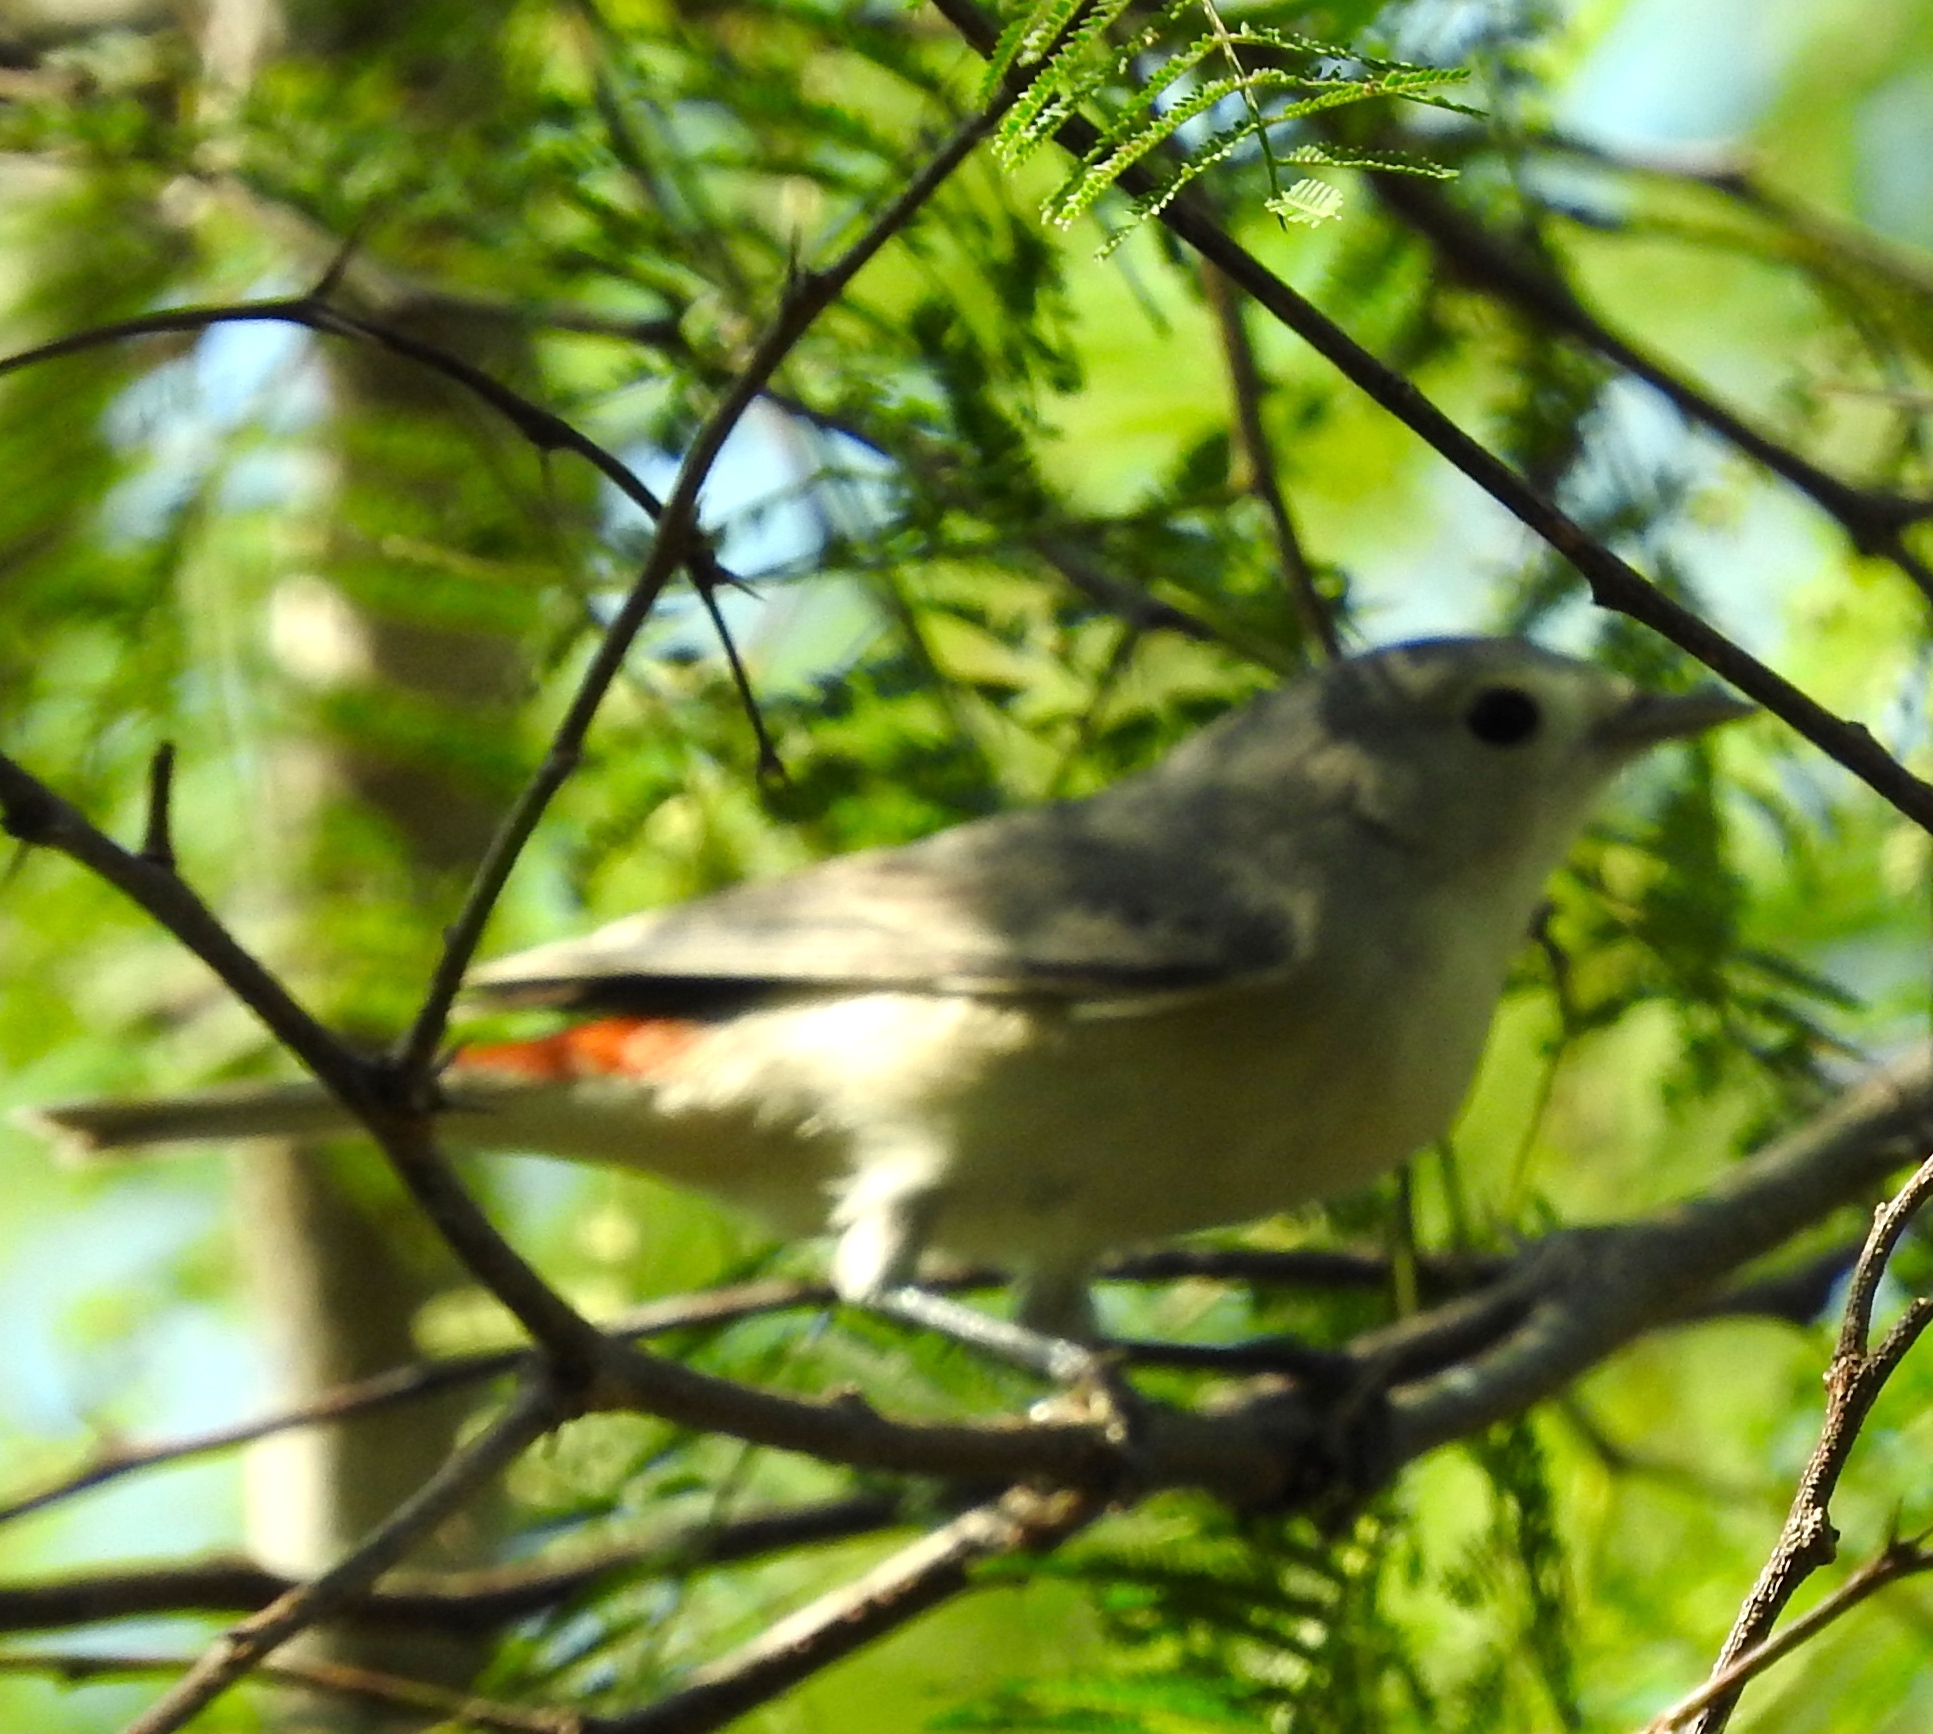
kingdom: Animalia
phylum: Chordata
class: Aves
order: Passeriformes
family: Parulidae
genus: Leiothlypis
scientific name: Leiothlypis luciae
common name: Lucy's warbler
